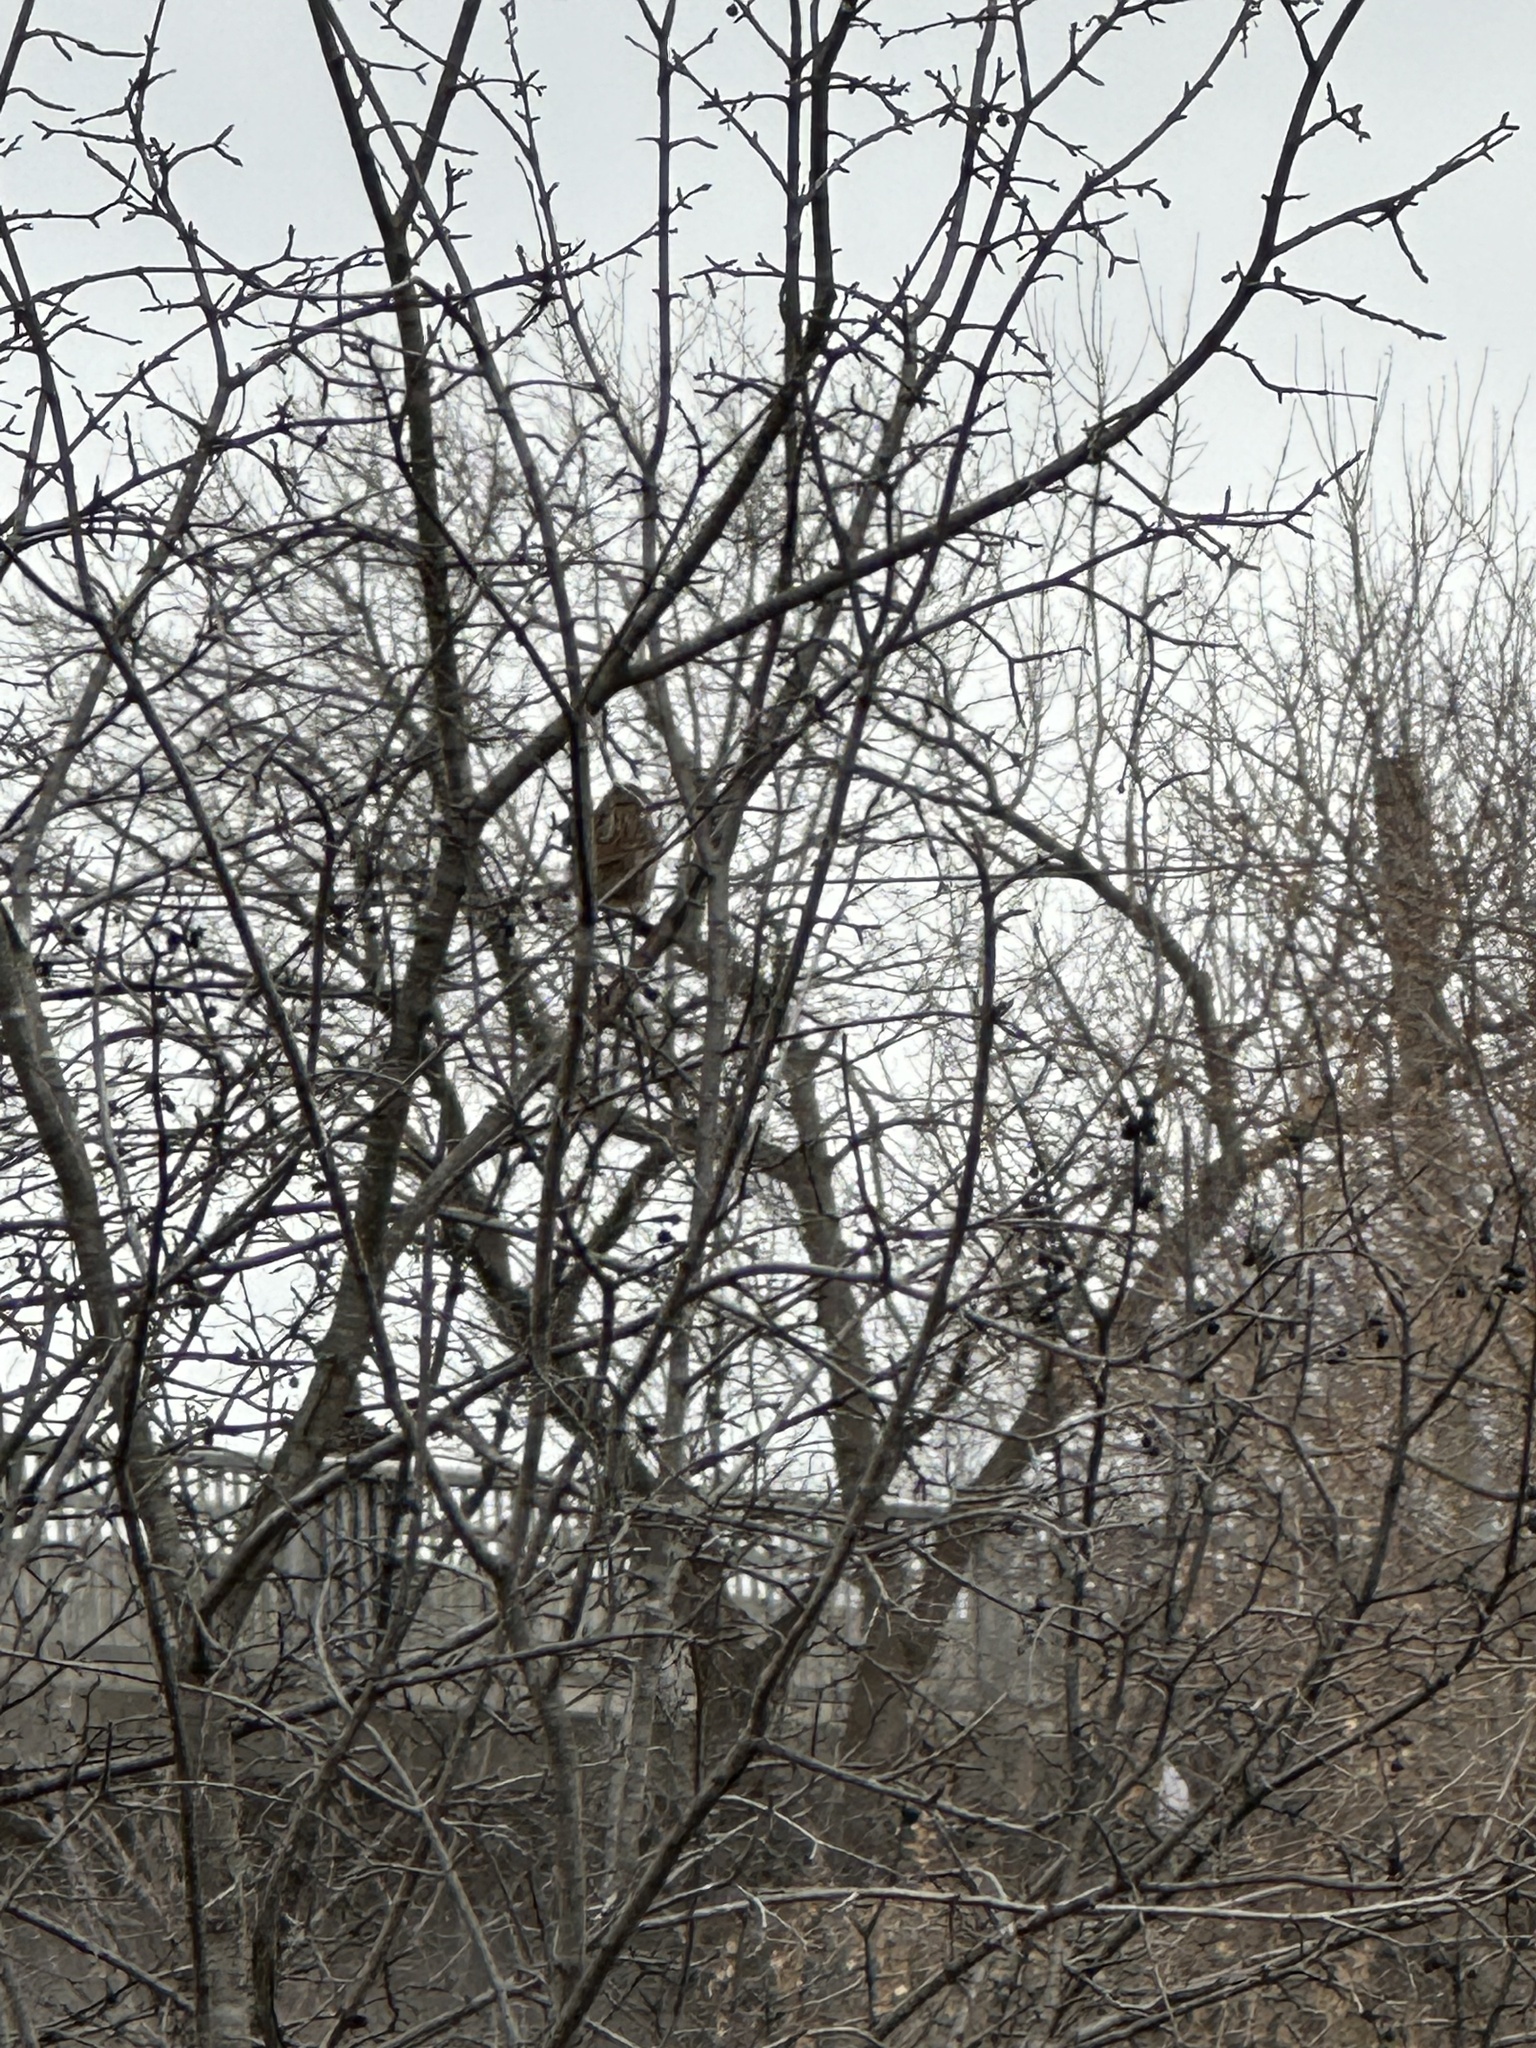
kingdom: Animalia
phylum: Chordata
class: Aves
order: Passeriformes
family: Passerellidae
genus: Melospiza
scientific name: Melospiza melodia
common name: Song sparrow
